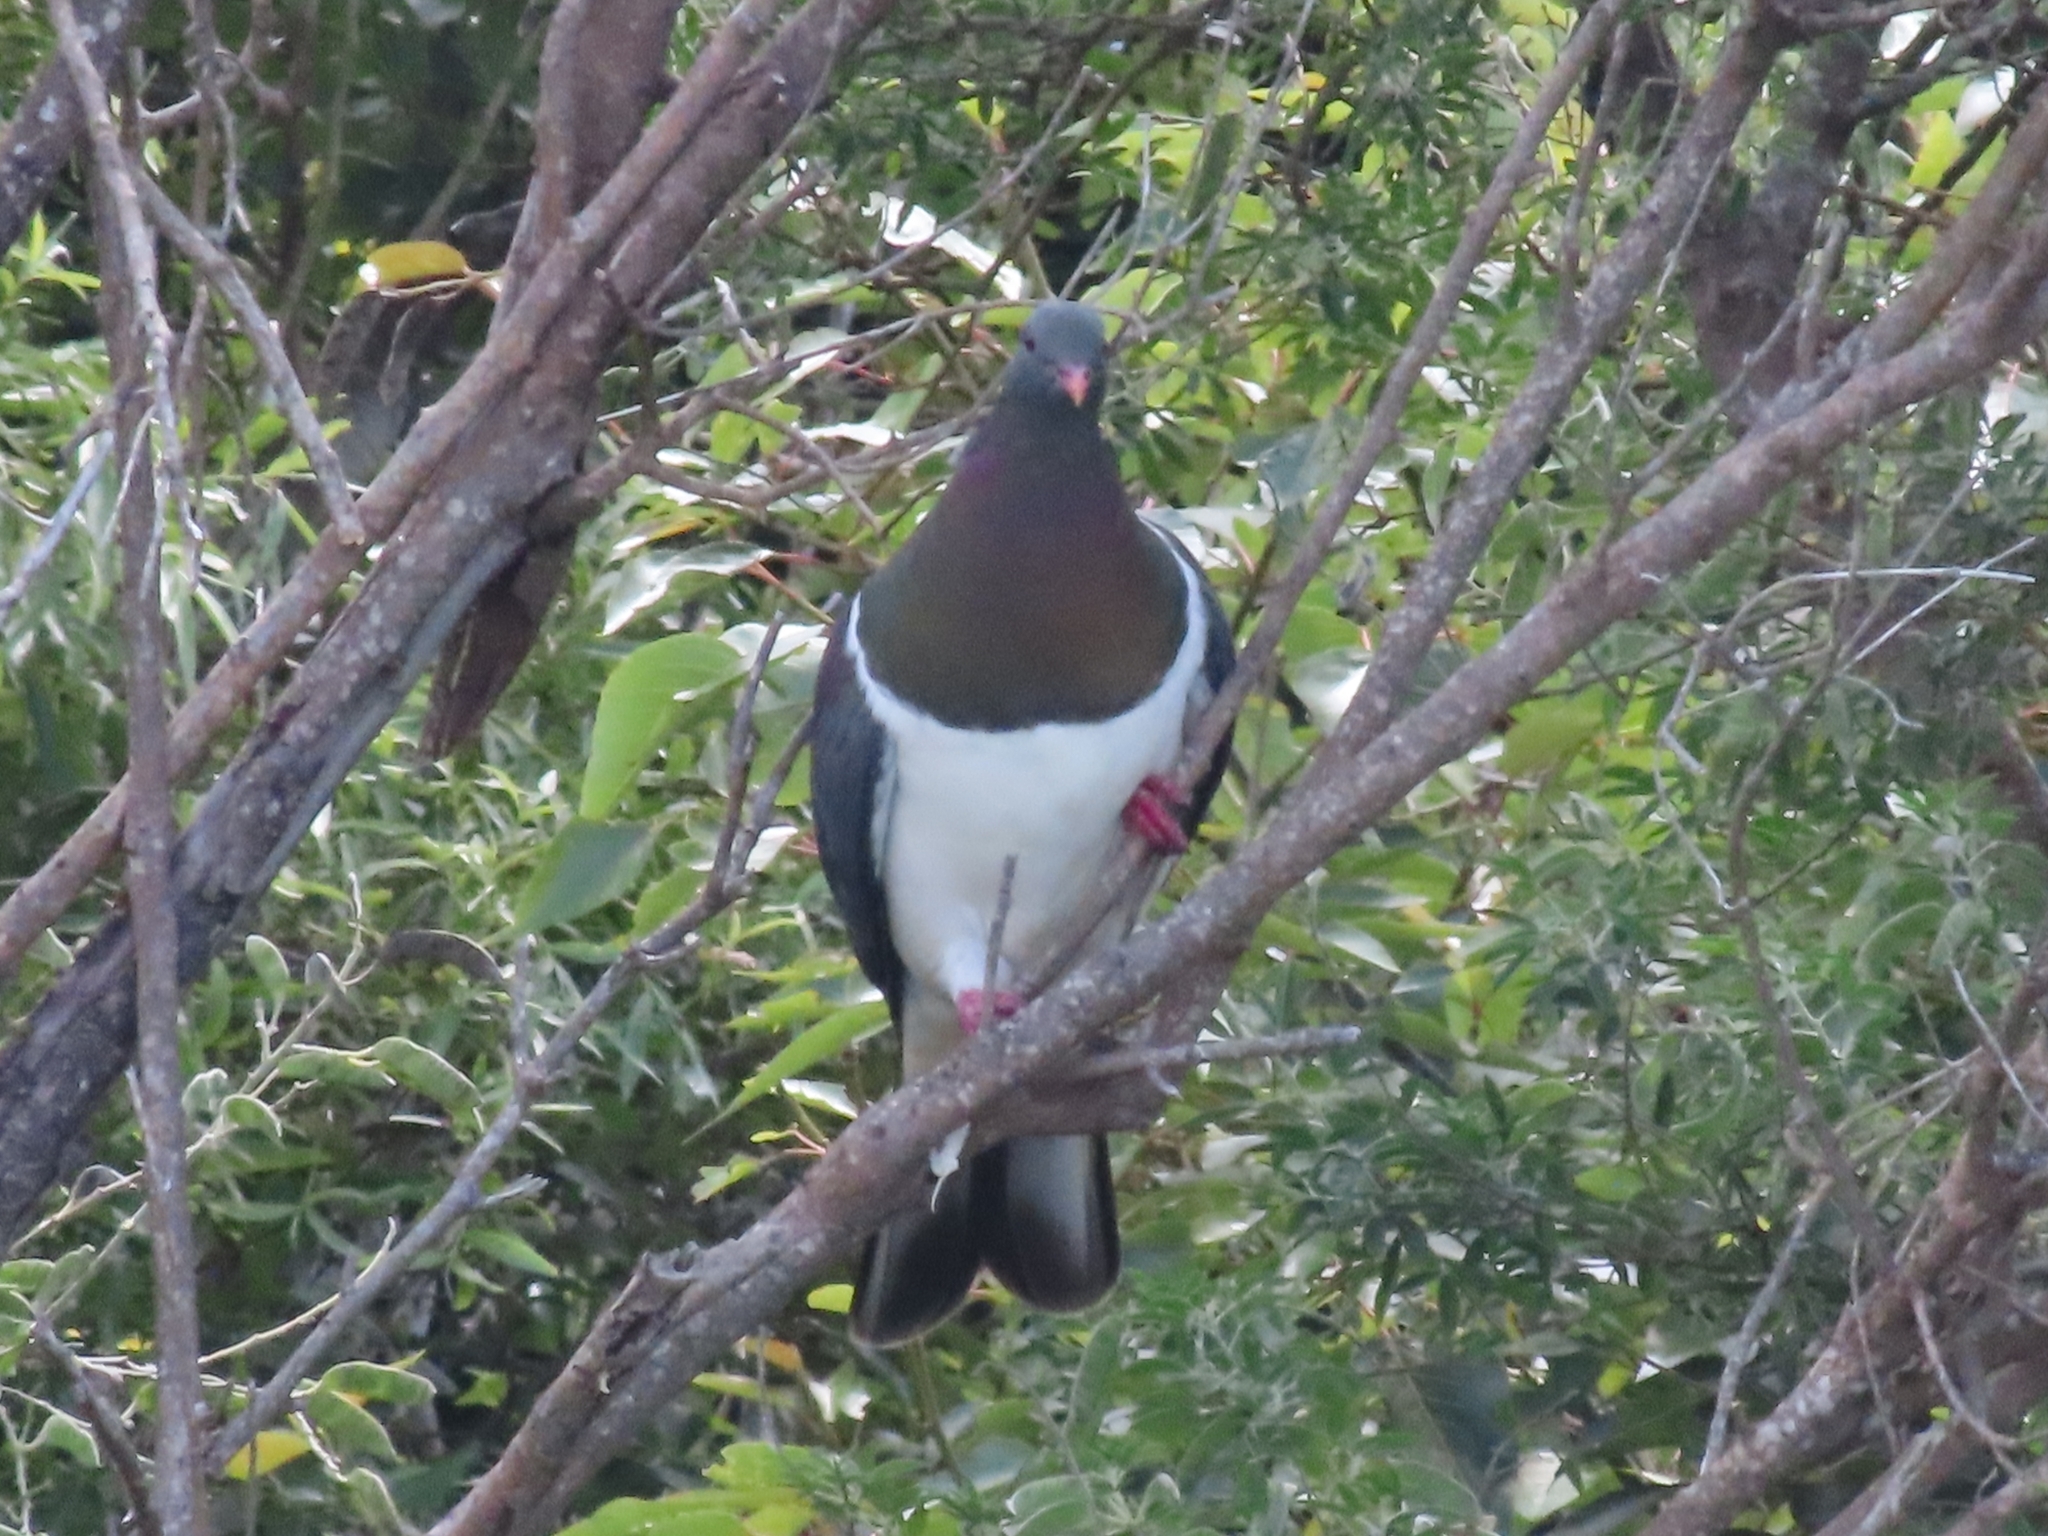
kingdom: Animalia
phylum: Chordata
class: Aves
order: Columbiformes
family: Columbidae
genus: Hemiphaga
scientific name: Hemiphaga novaeseelandiae
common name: New zealand pigeon
